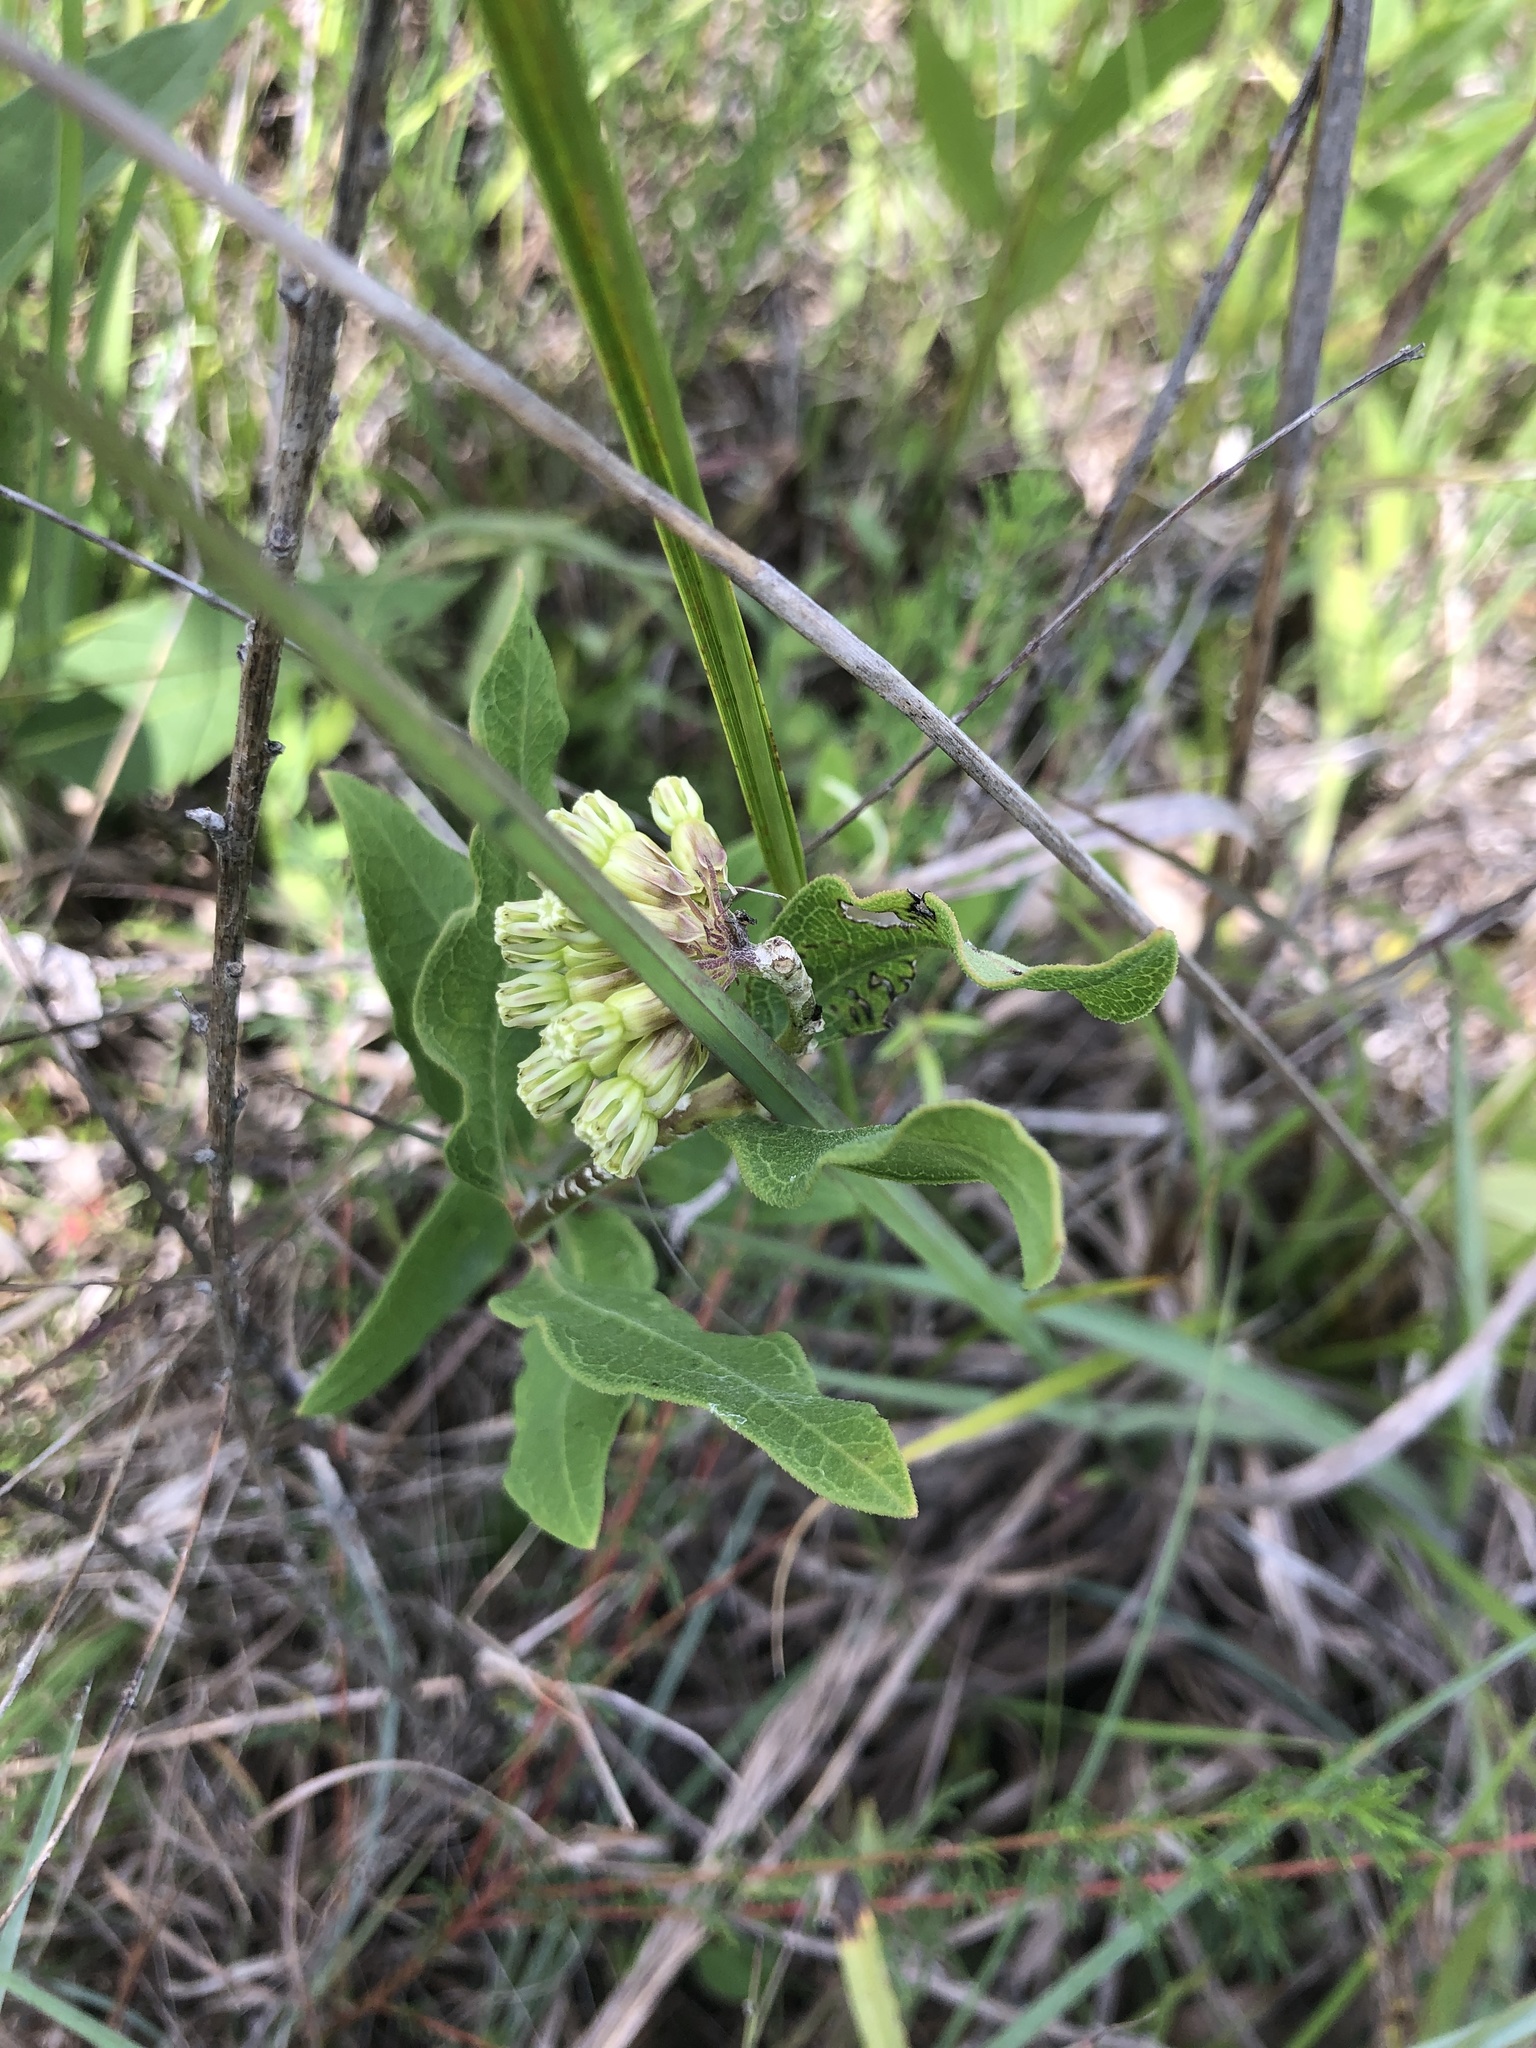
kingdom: Plantae
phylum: Tracheophyta
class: Magnoliopsida
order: Gentianales
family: Apocynaceae
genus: Asclepias
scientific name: Asclepias viridiflora
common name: Green comet milkweed
